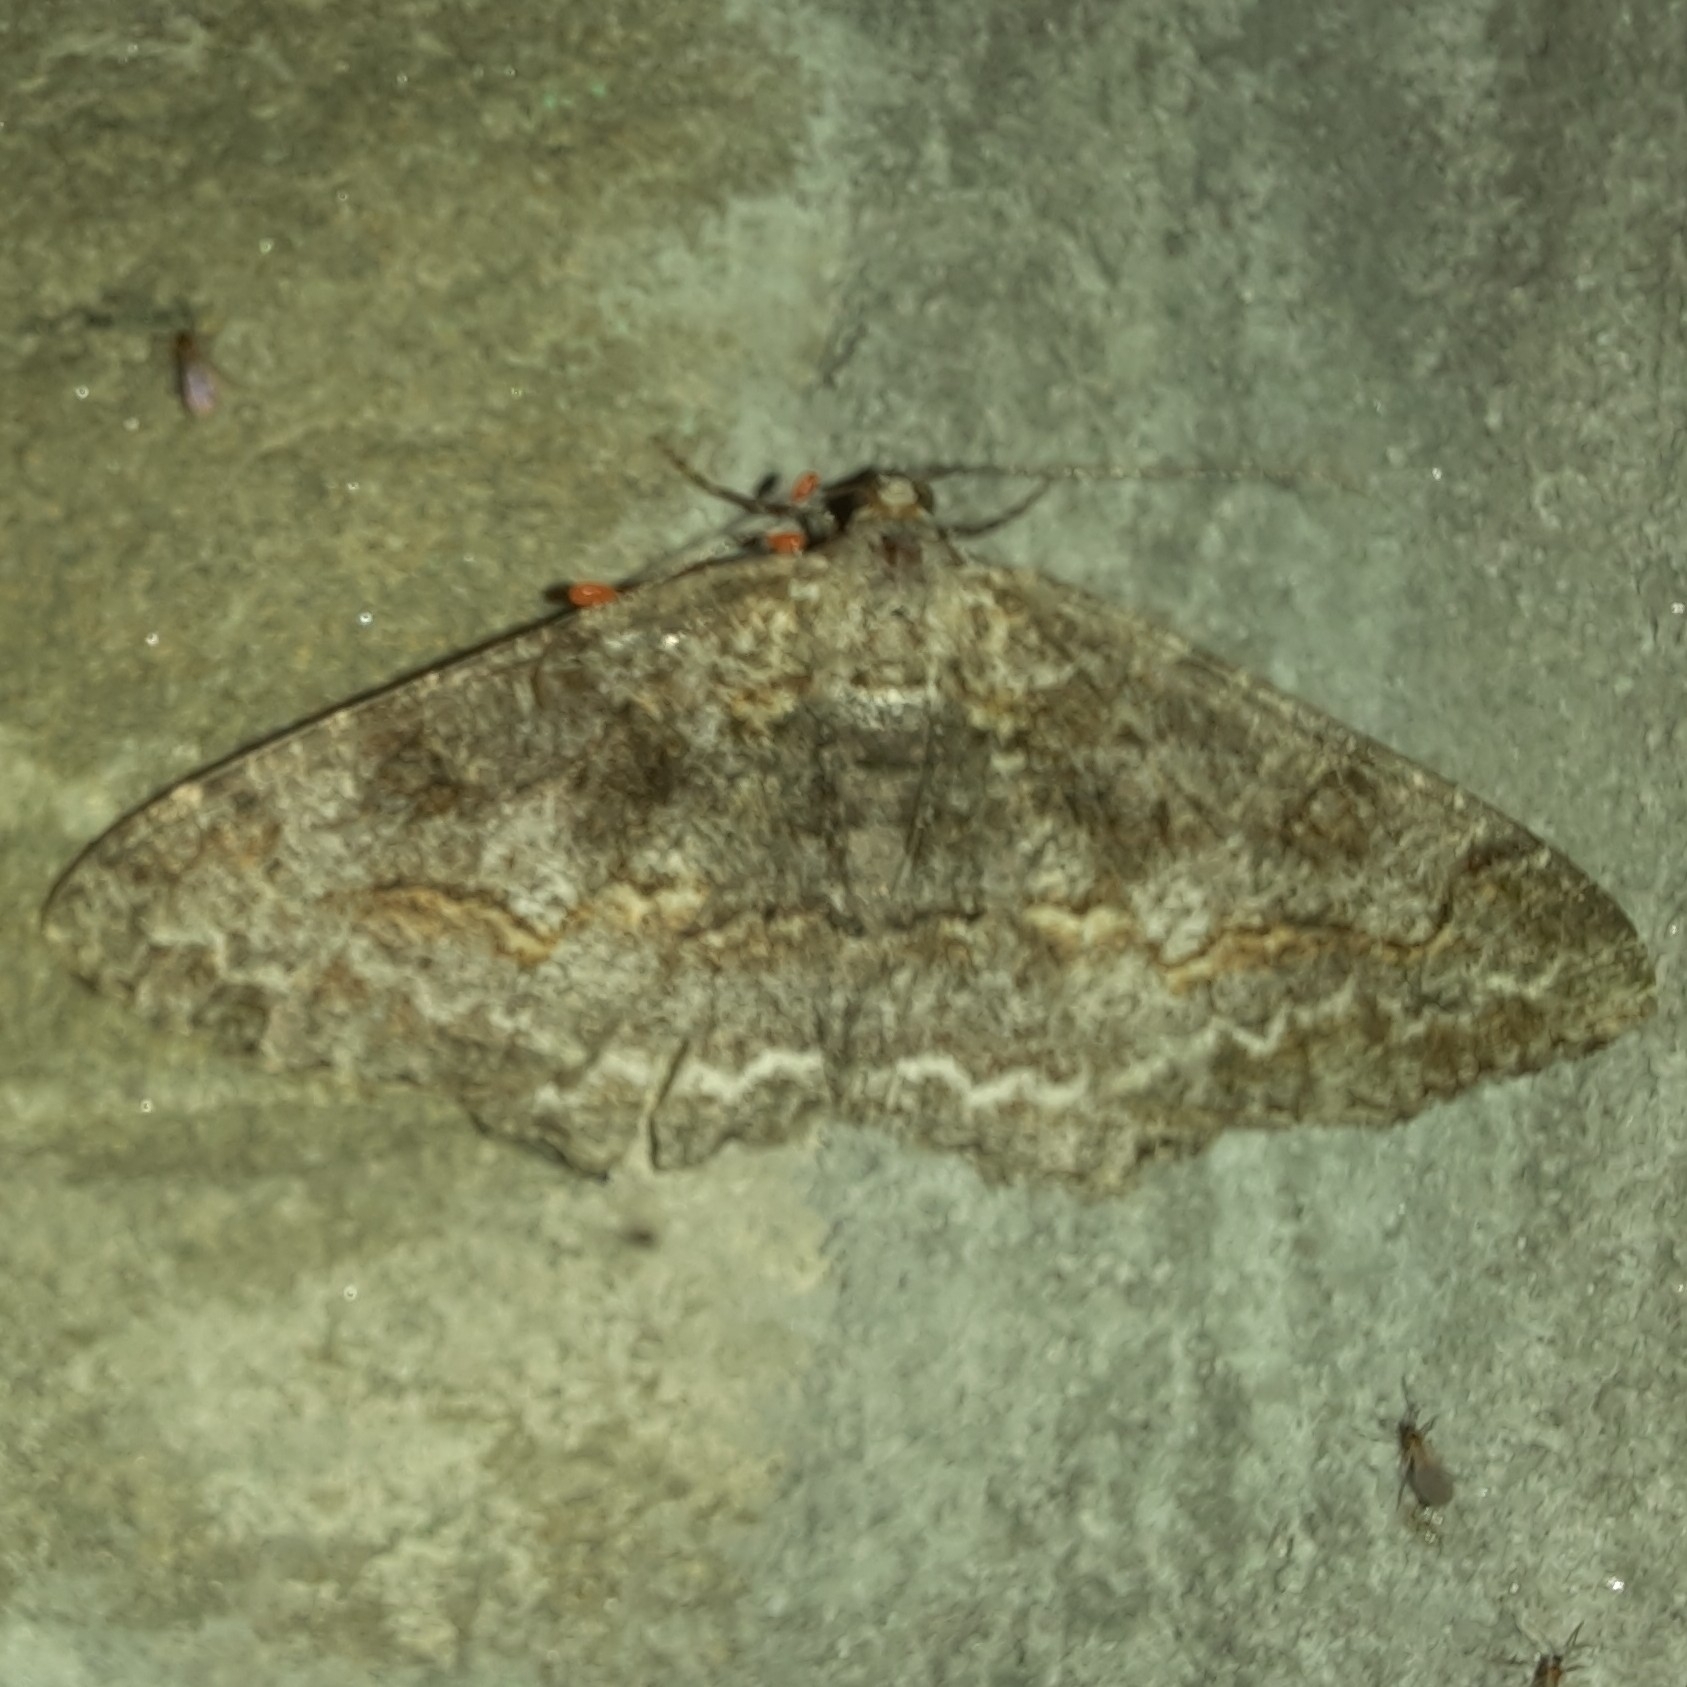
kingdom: Animalia
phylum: Arthropoda
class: Insecta
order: Lepidoptera
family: Geometridae
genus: Alcis
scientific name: Alcis repandata
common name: Mottled beauty
